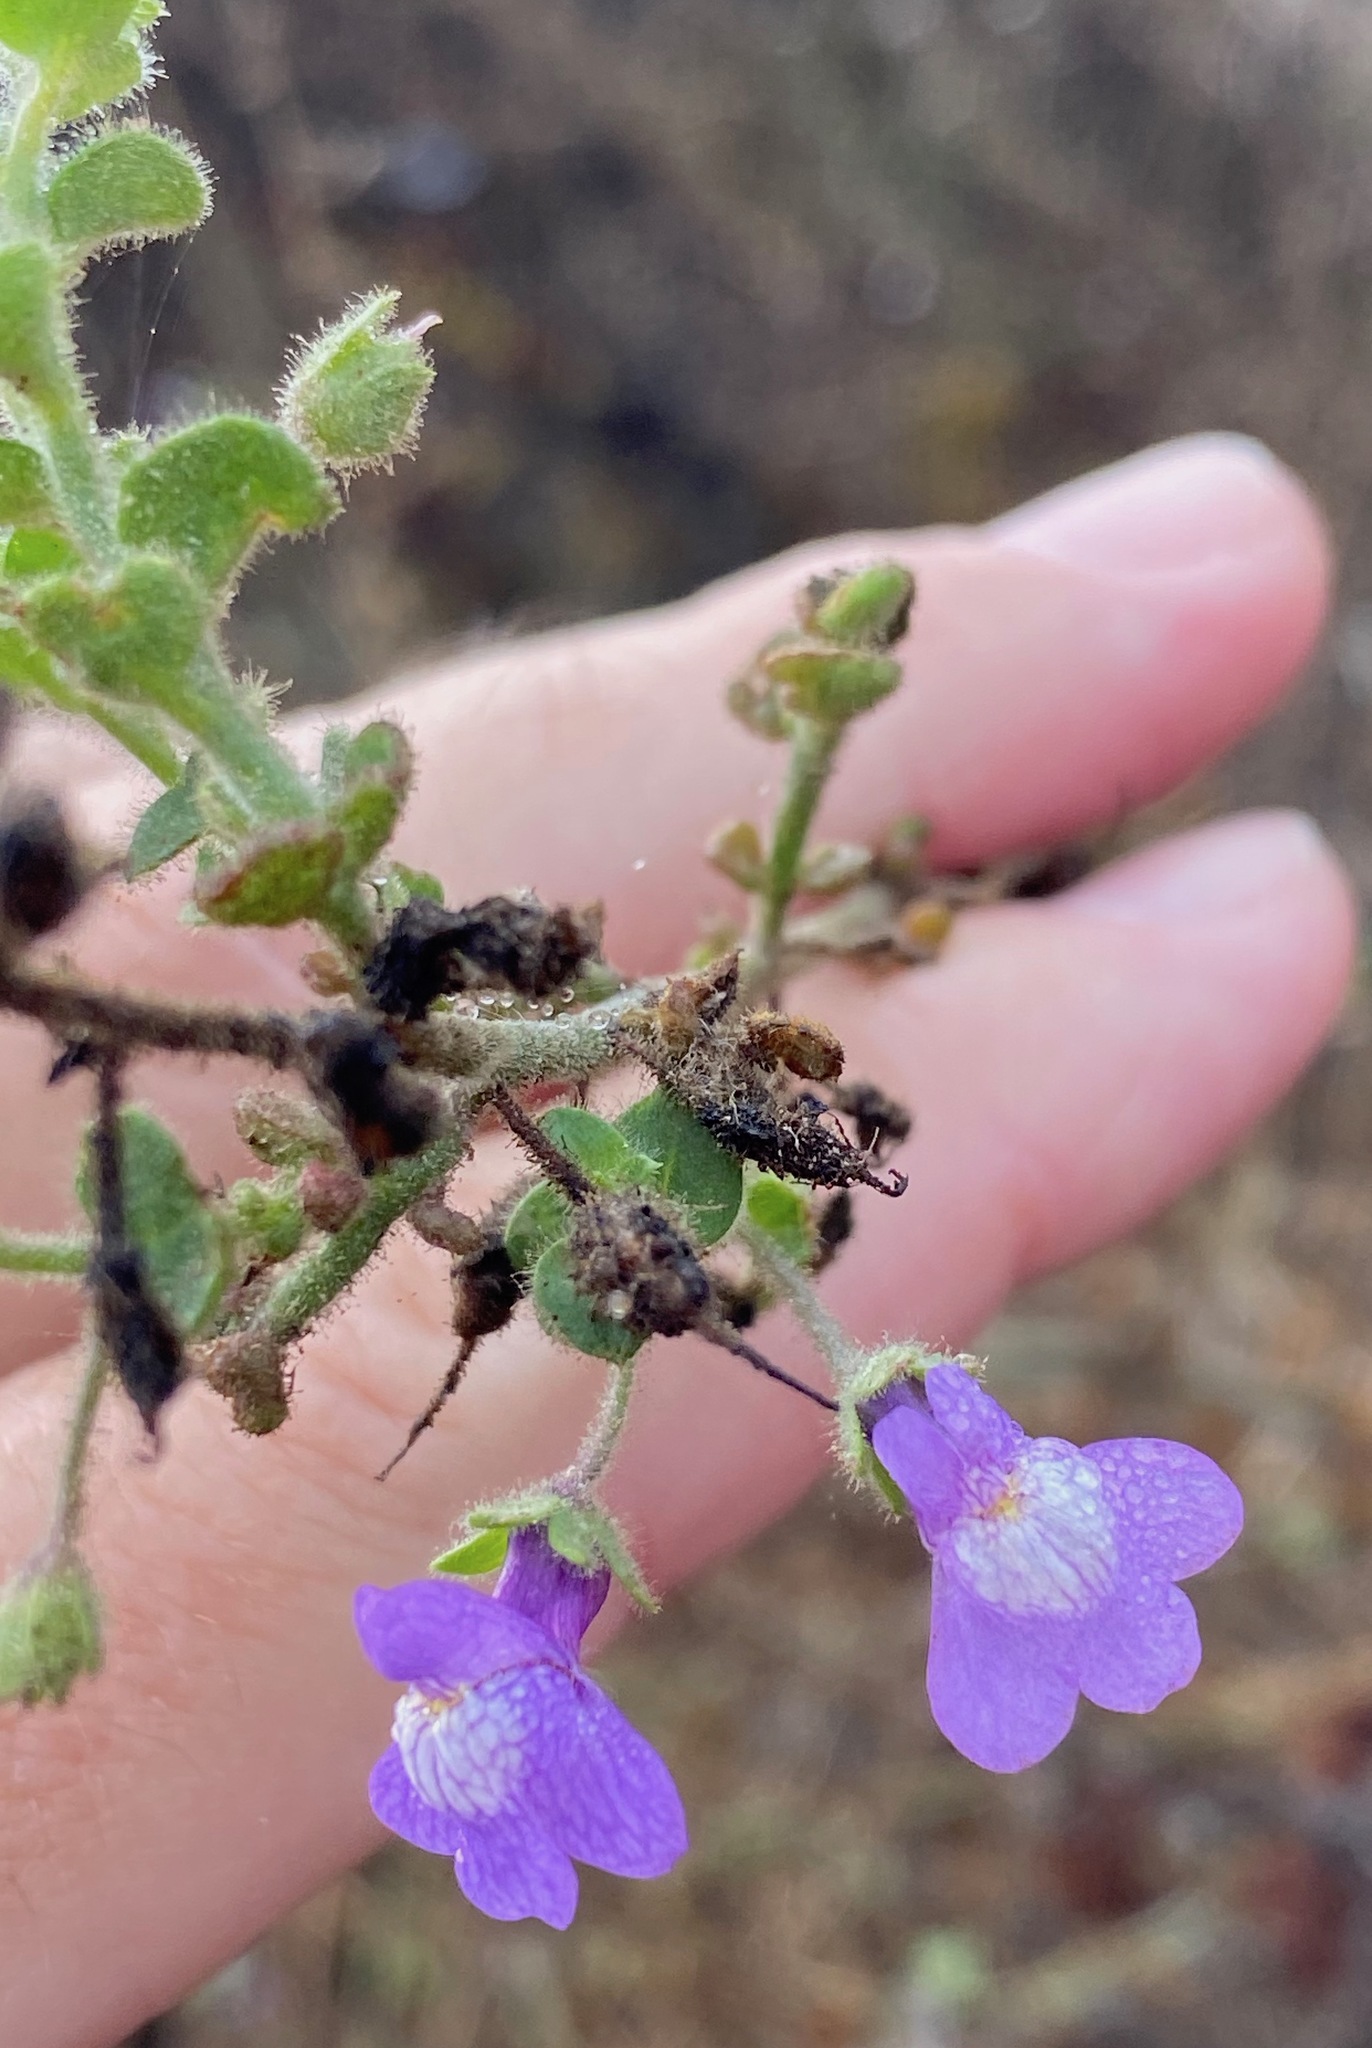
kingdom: Plantae
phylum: Tracheophyta
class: Magnoliopsida
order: Lamiales
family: Plantaginaceae
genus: Sairocarpus
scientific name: Sairocarpus nuttallianus
